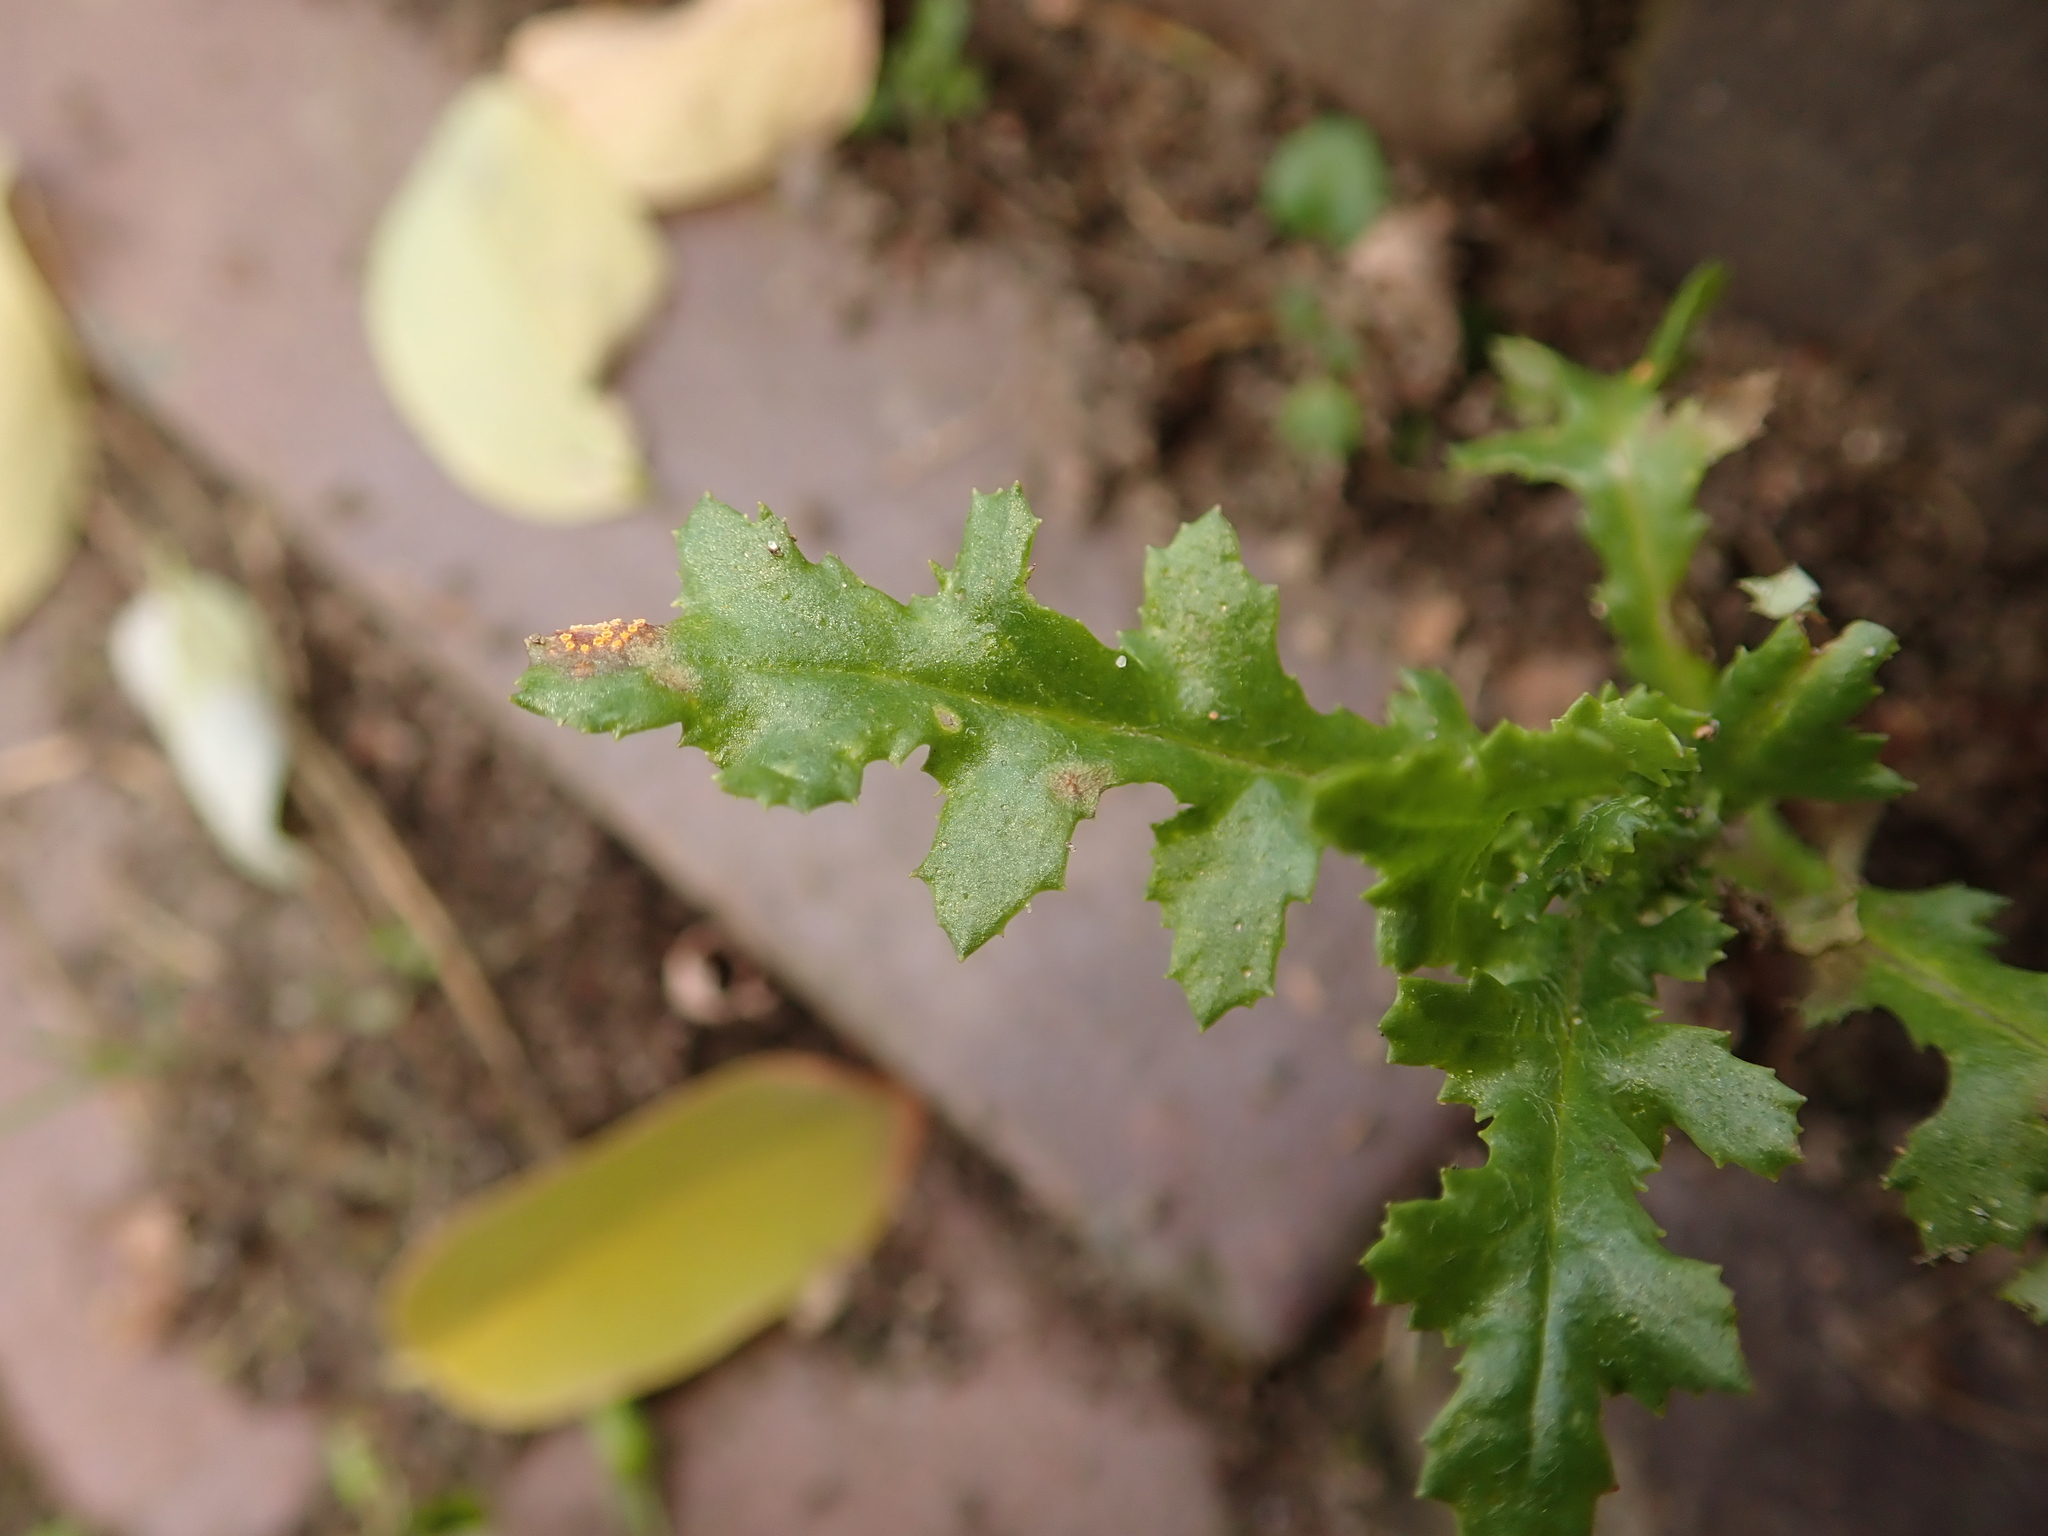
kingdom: Plantae
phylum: Tracheophyta
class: Magnoliopsida
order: Asterales
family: Asteraceae
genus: Senecio
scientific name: Senecio vulgaris
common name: Old-man-in-the-spring
